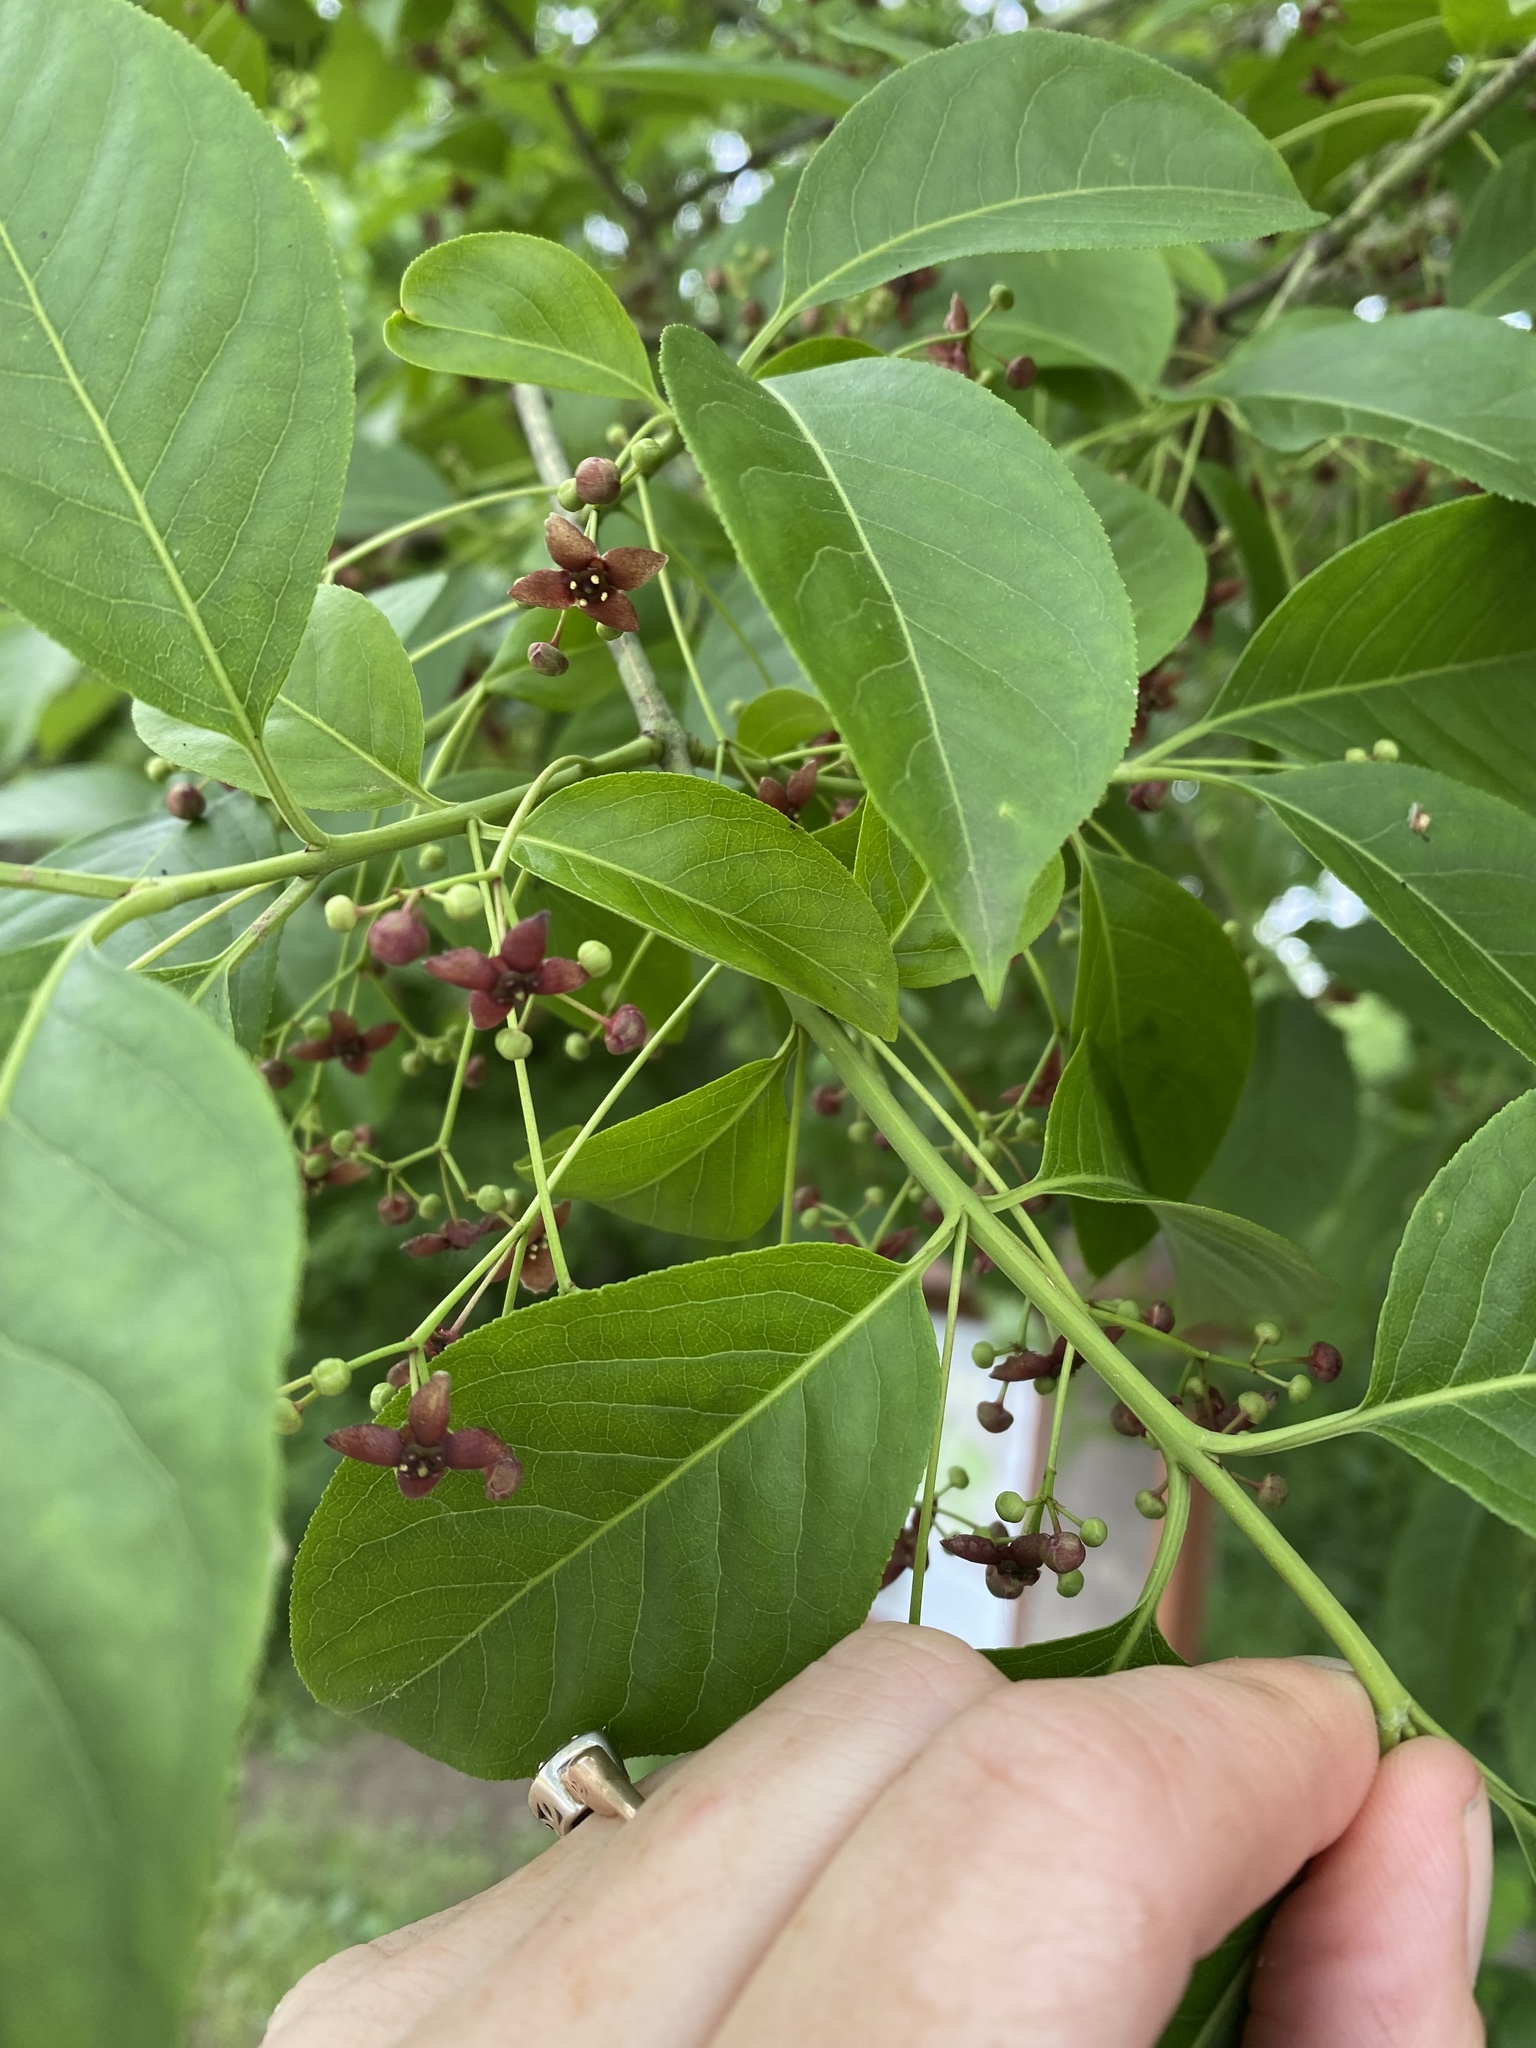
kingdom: Plantae
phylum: Tracheophyta
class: Magnoliopsida
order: Celastrales
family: Celastraceae
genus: Euonymus
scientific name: Euonymus atropurpureus
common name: Eastern wahoo
